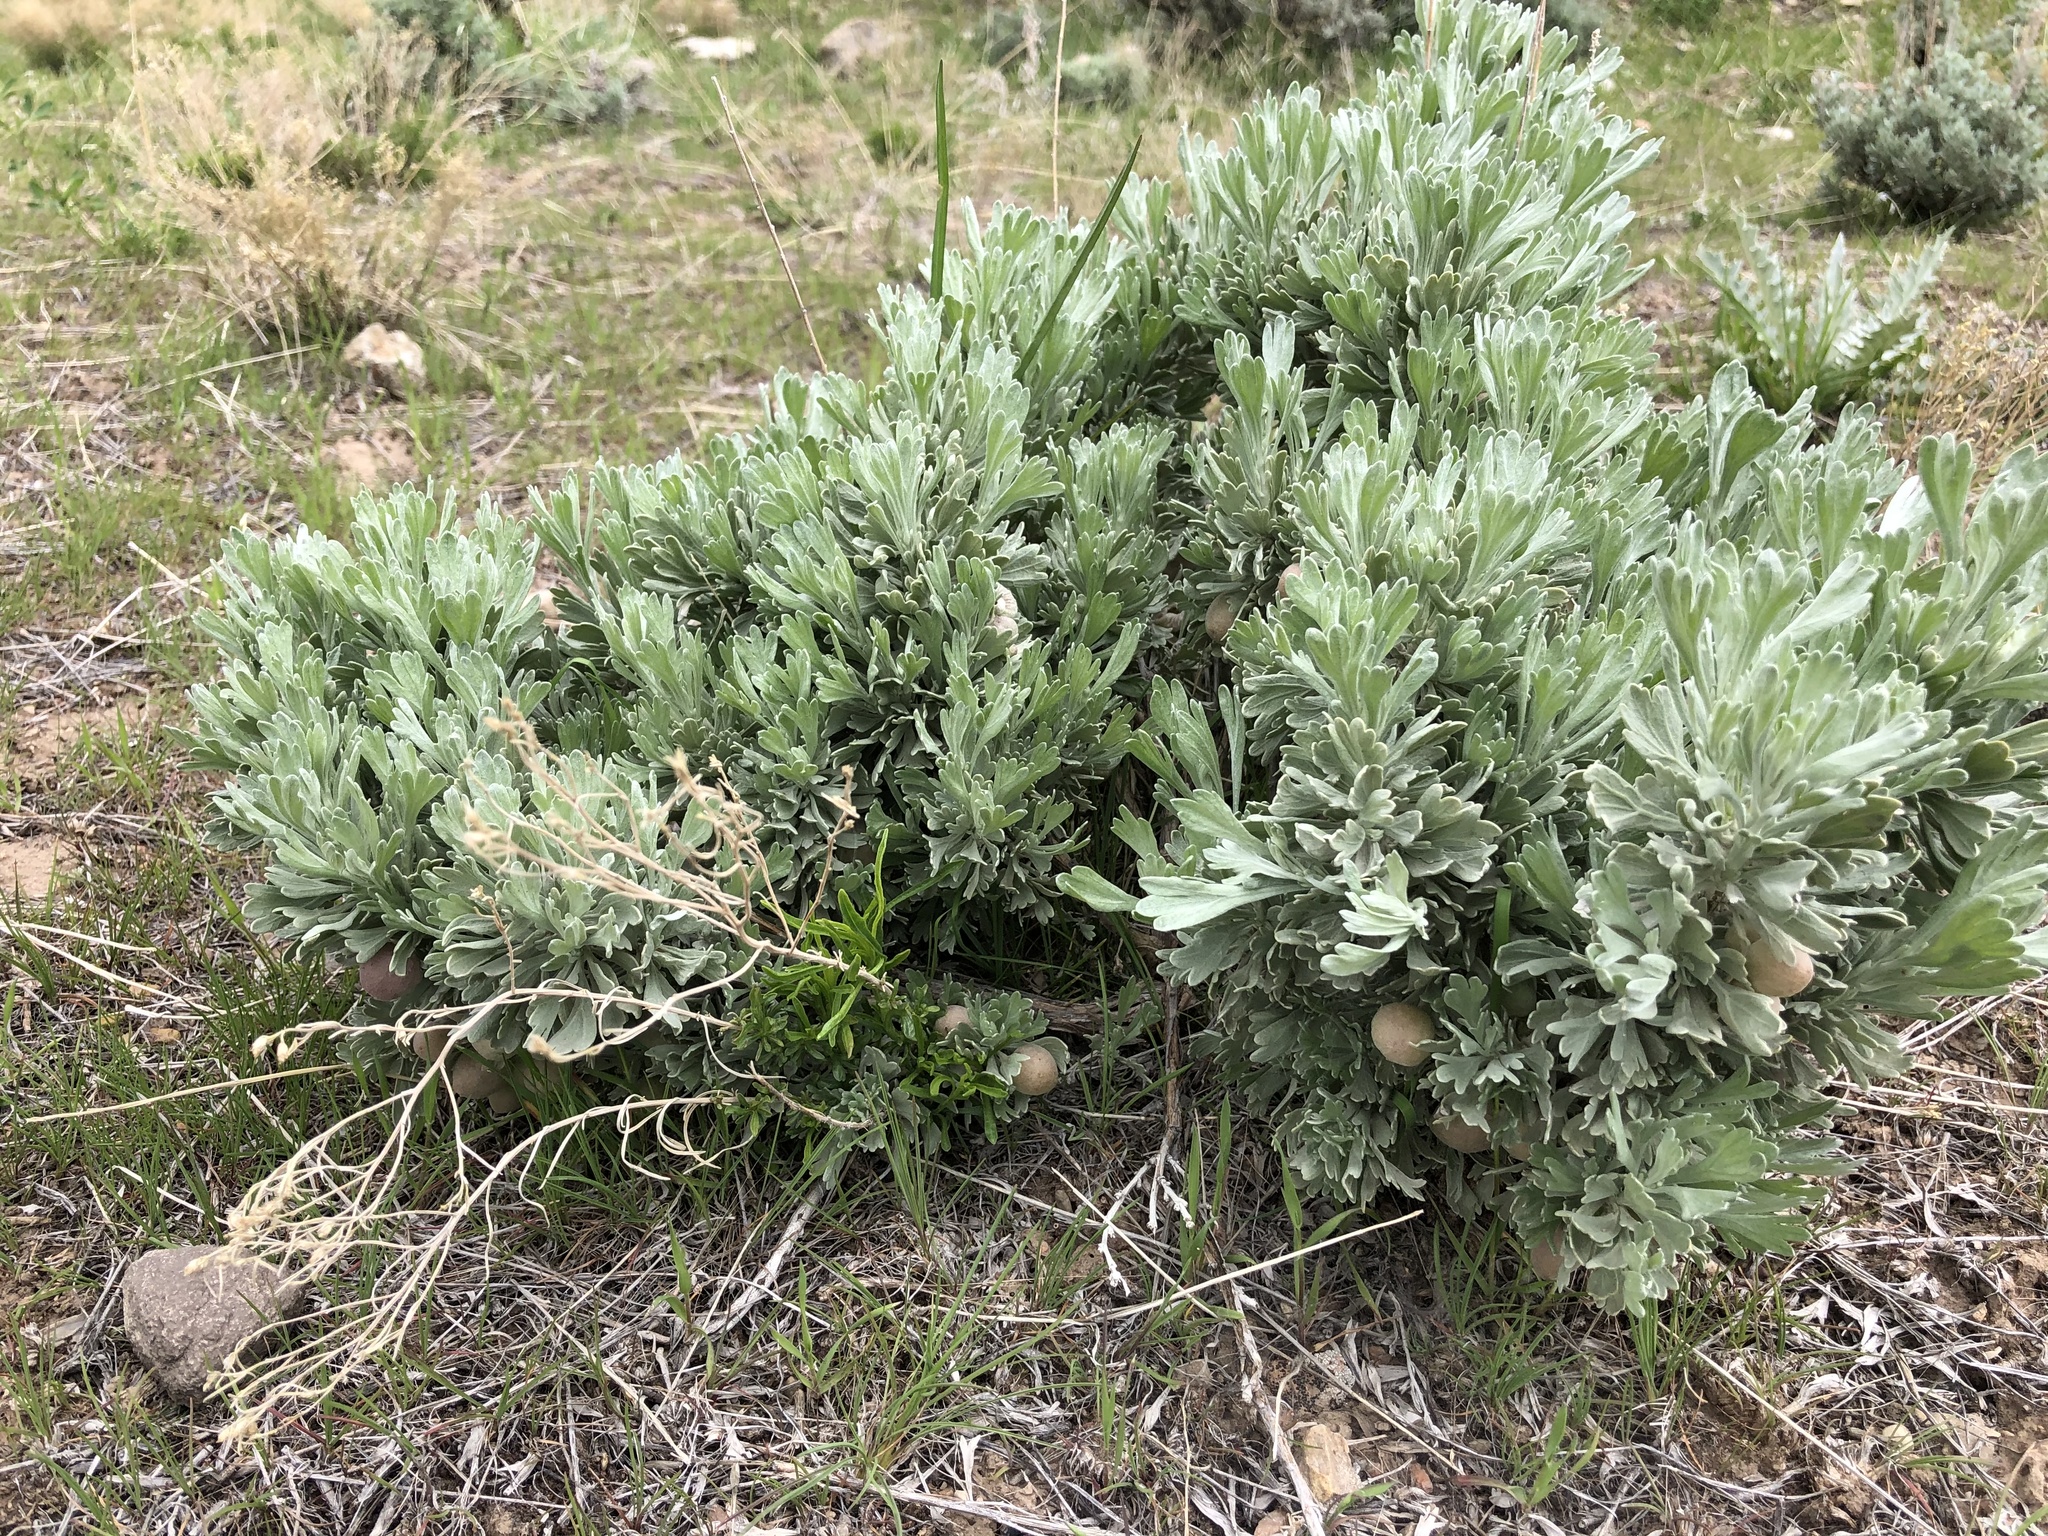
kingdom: Plantae
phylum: Tracheophyta
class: Magnoliopsida
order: Asterales
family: Asteraceae
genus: Artemisia
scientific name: Artemisia tridentata
